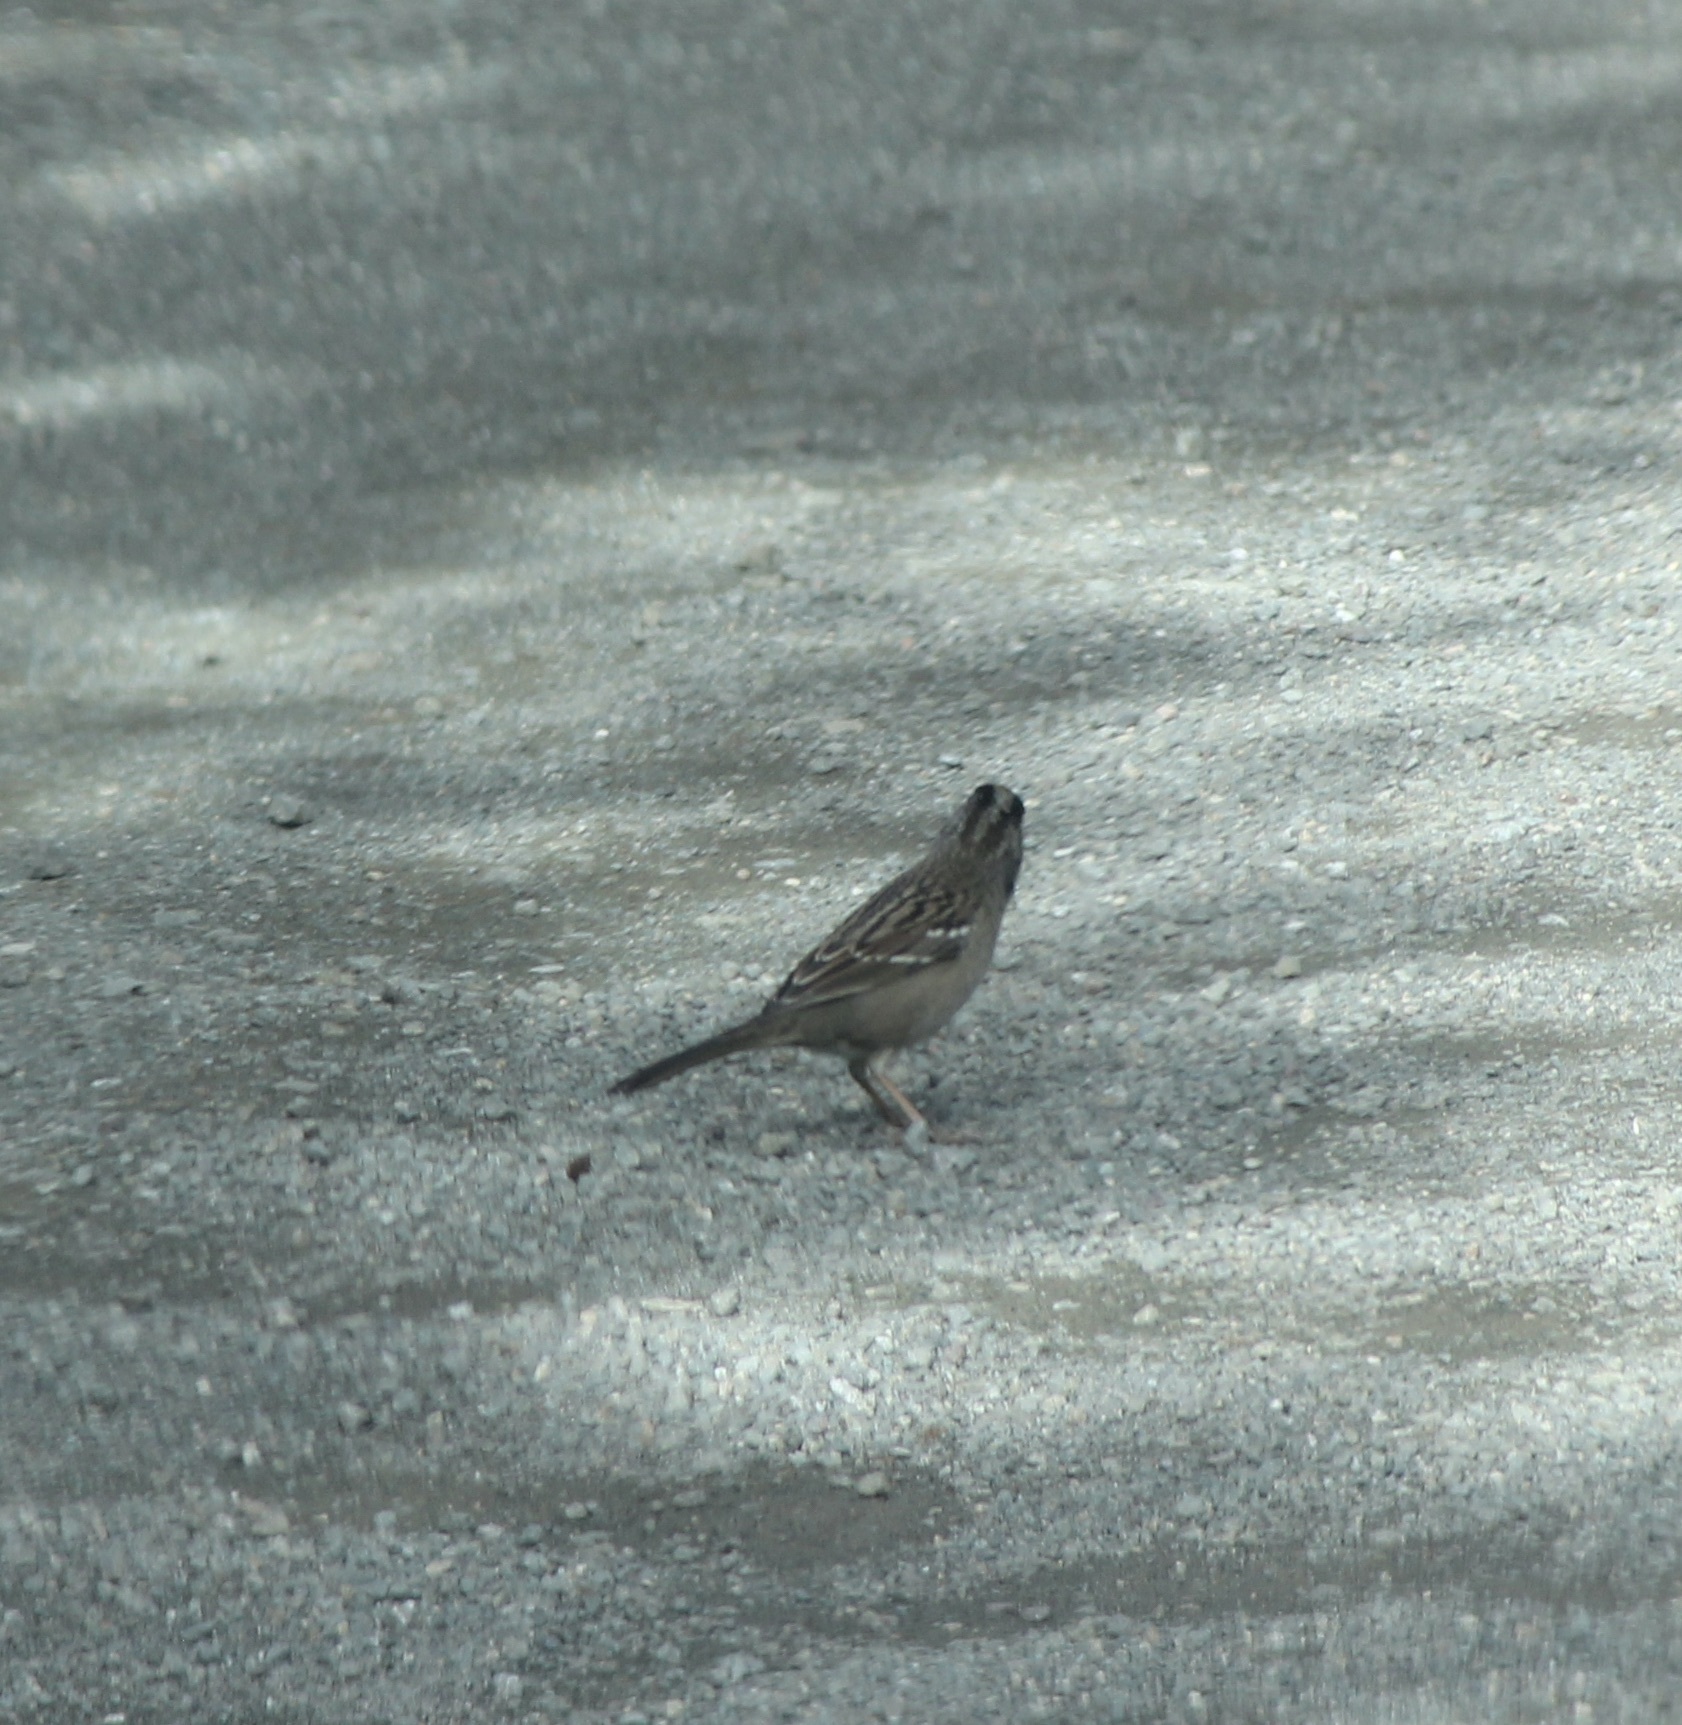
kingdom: Animalia
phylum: Chordata
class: Aves
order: Passeriformes
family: Passerellidae
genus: Zonotrichia
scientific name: Zonotrichia leucophrys
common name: White-crowned sparrow
